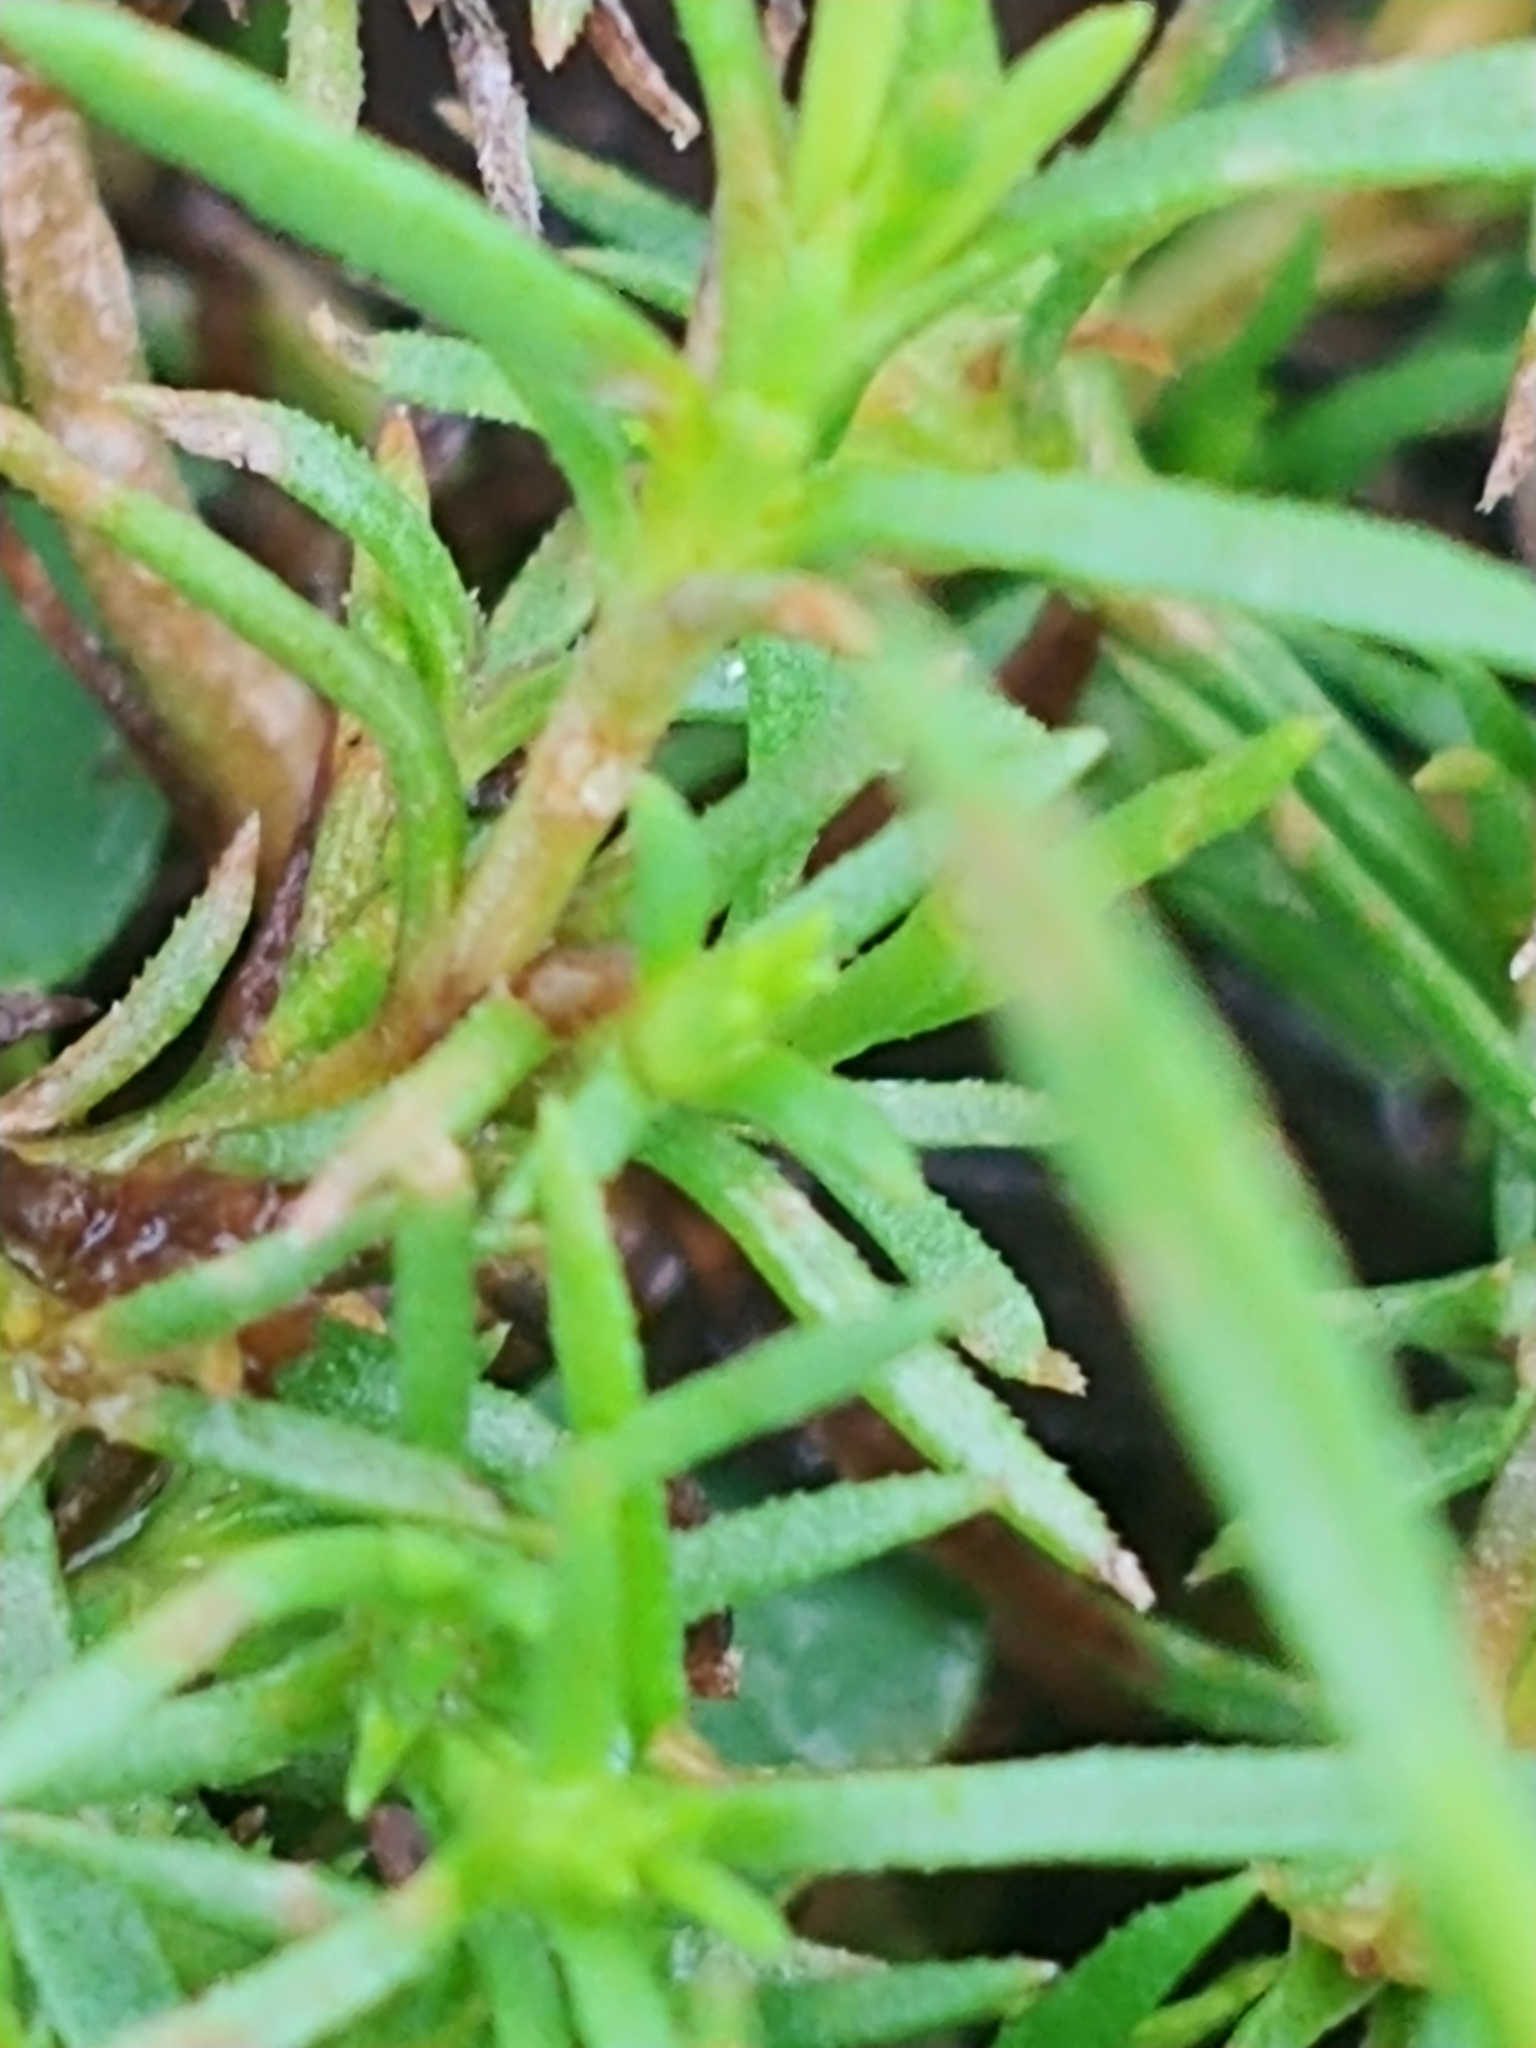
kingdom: Plantae
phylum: Tracheophyta
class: Magnoliopsida
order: Lamiales
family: Tetrachondraceae
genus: Polypremum
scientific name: Polypremum procumbens
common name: Juniper-leaf
